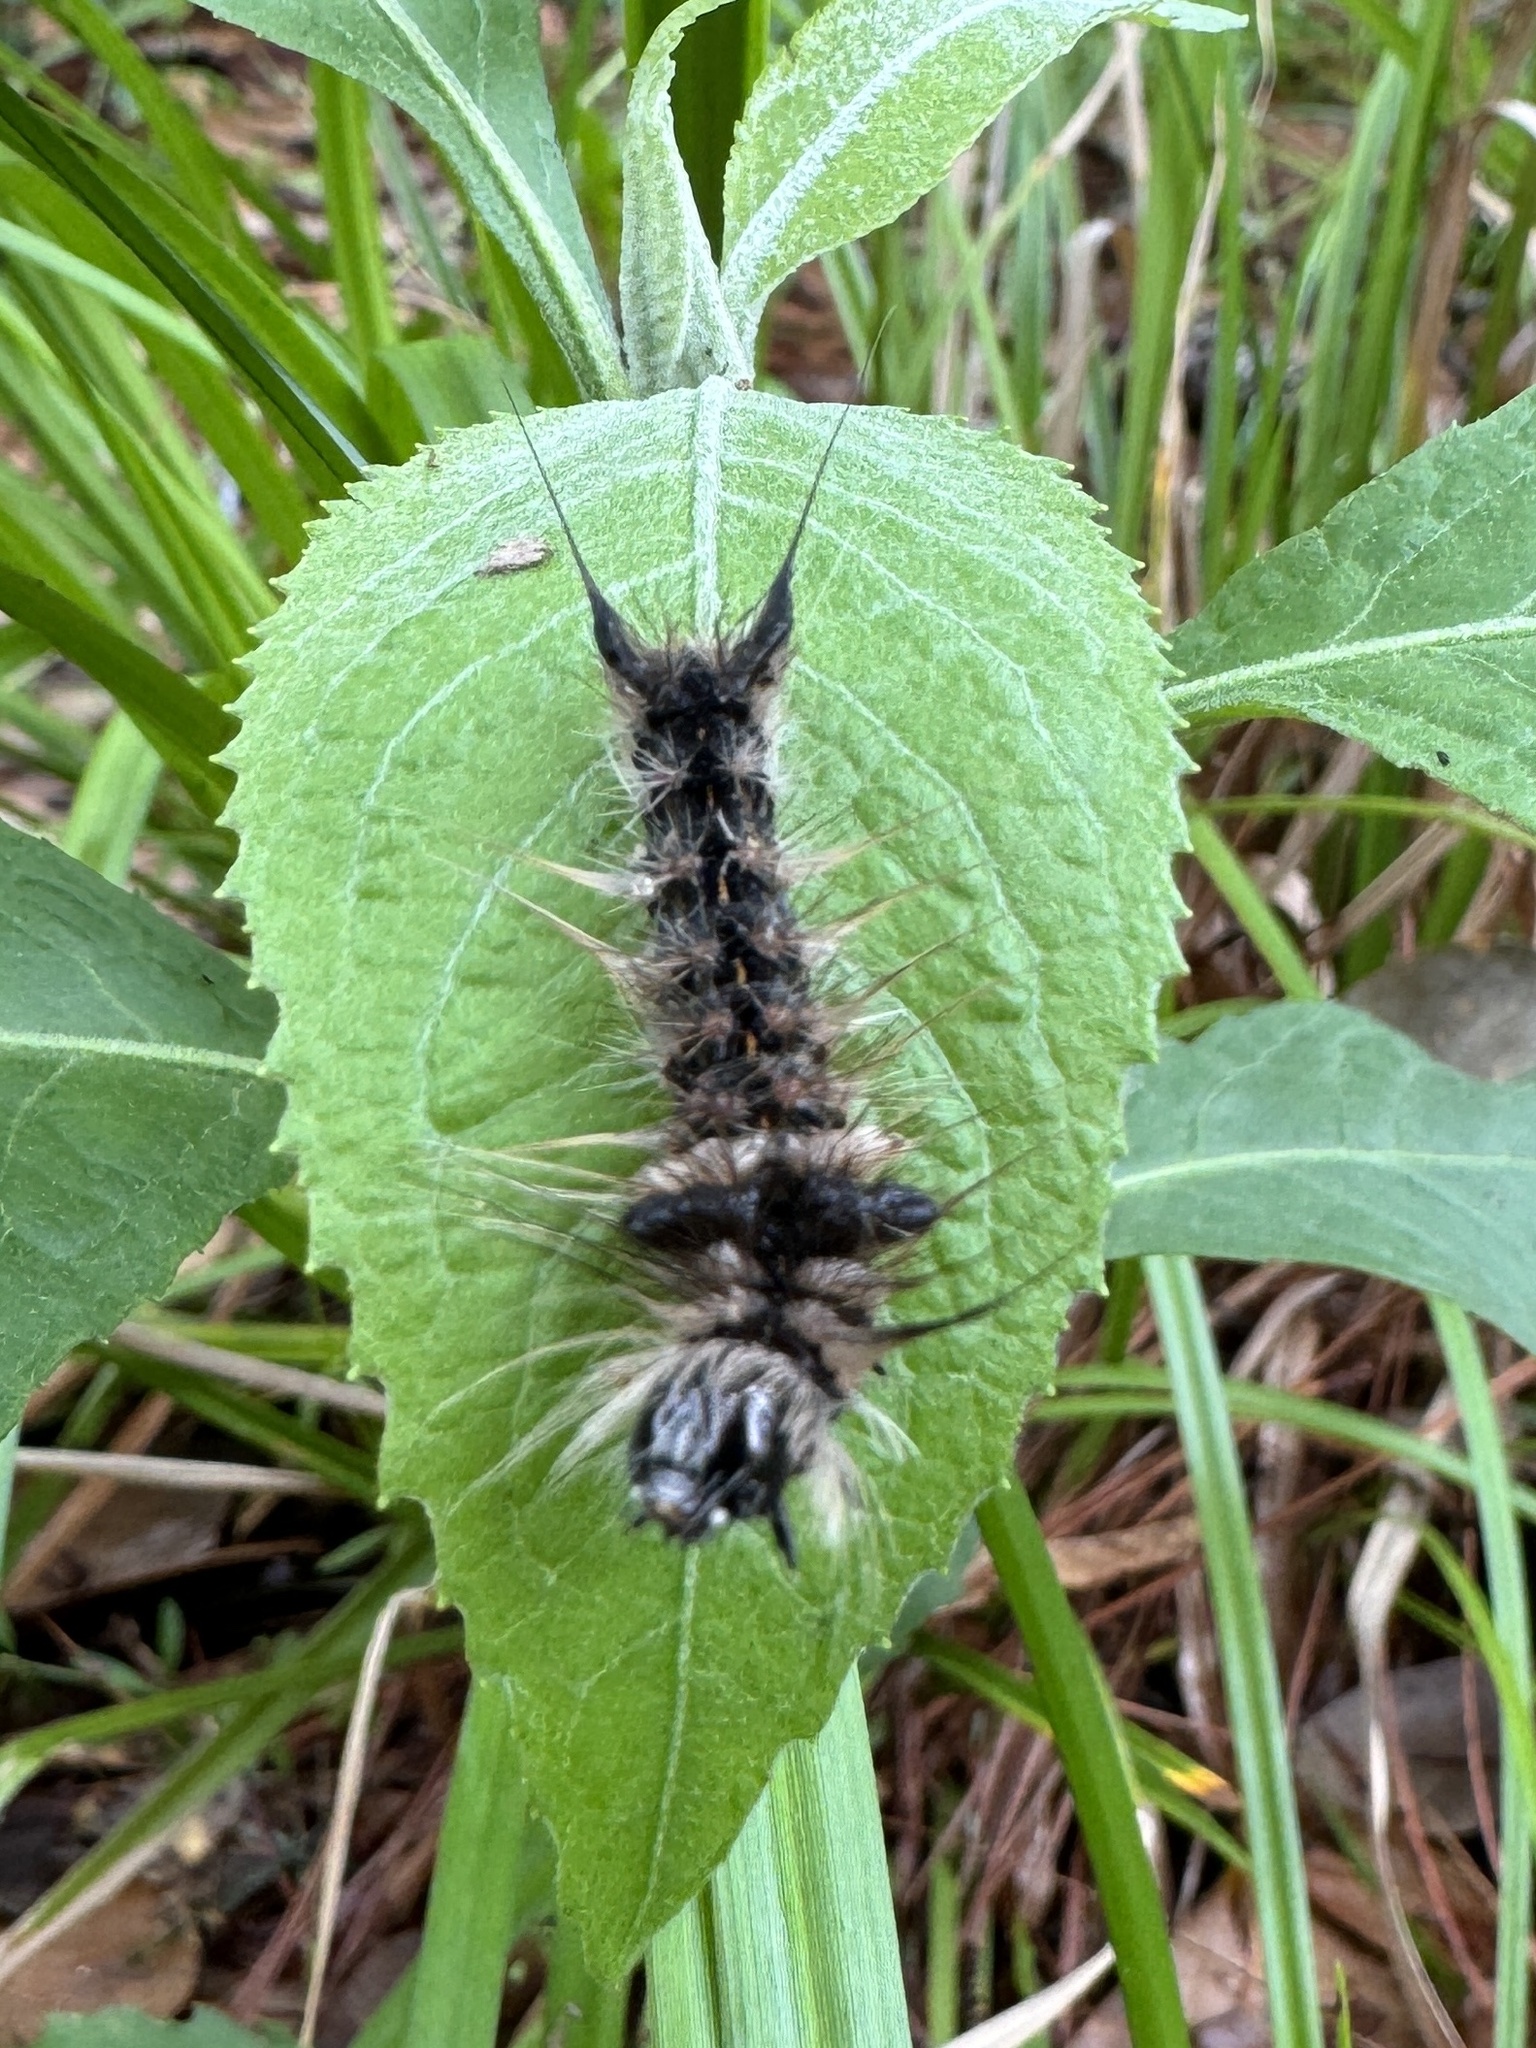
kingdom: Animalia
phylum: Arthropoda
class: Insecta
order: Lepidoptera
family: Noctuidae
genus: Acronicta
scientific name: Acronicta impleta
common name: Powdered dagger
